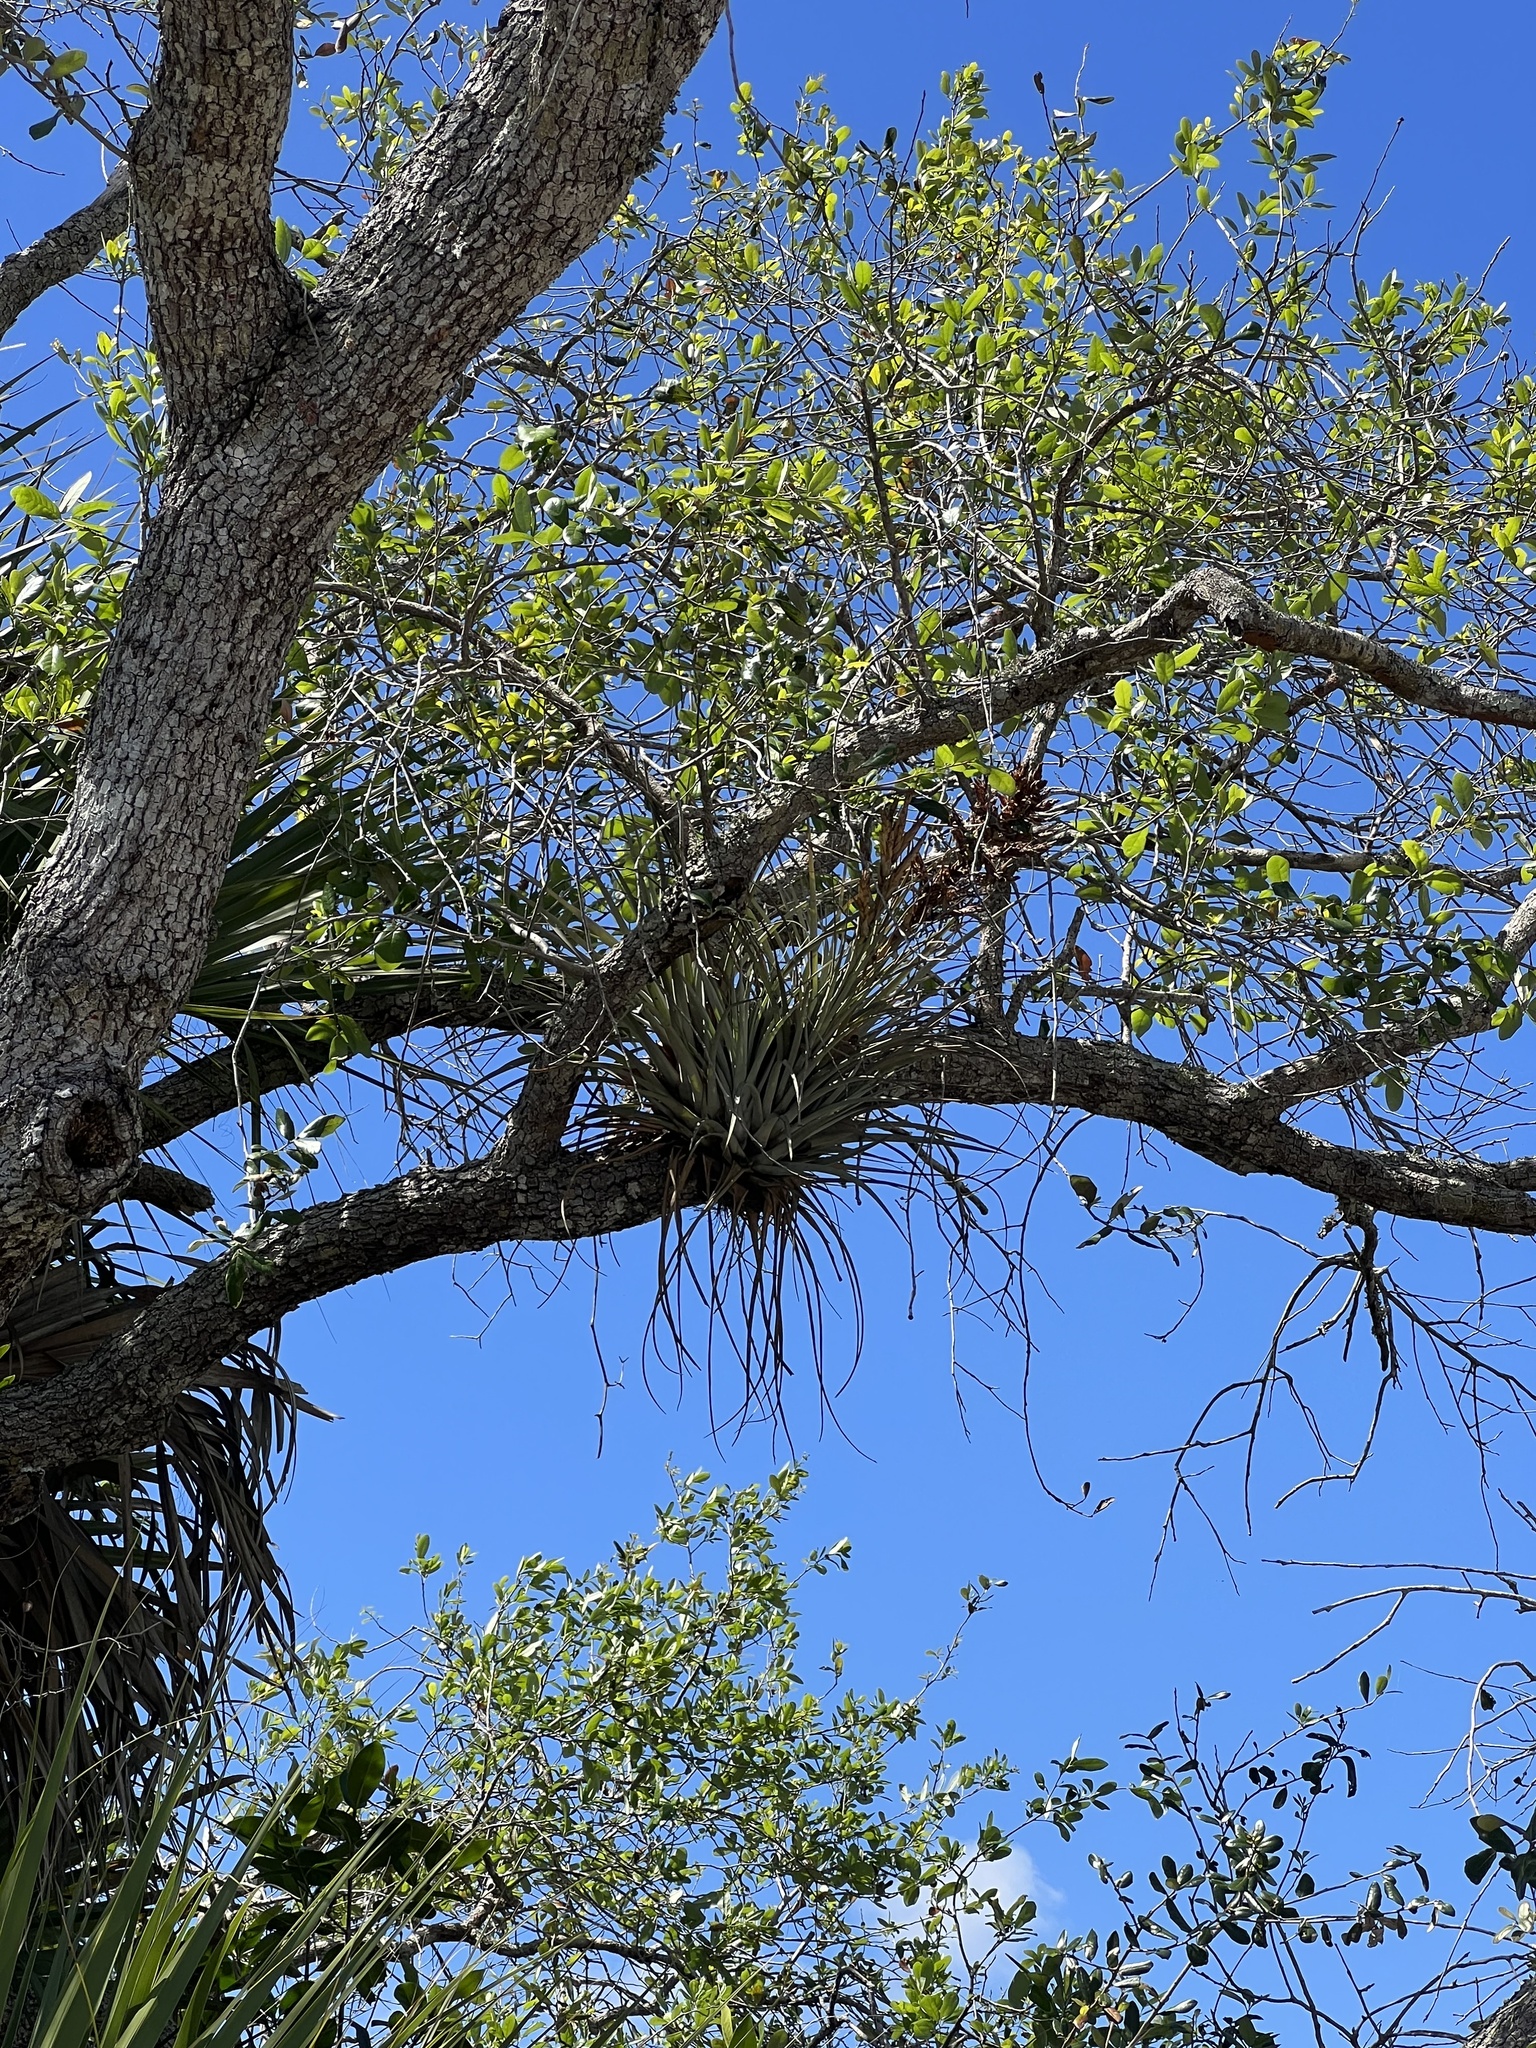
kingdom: Plantae
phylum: Tracheophyta
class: Liliopsida
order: Poales
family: Bromeliaceae
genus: Tillandsia
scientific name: Tillandsia fasciculata
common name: Giant airplant
